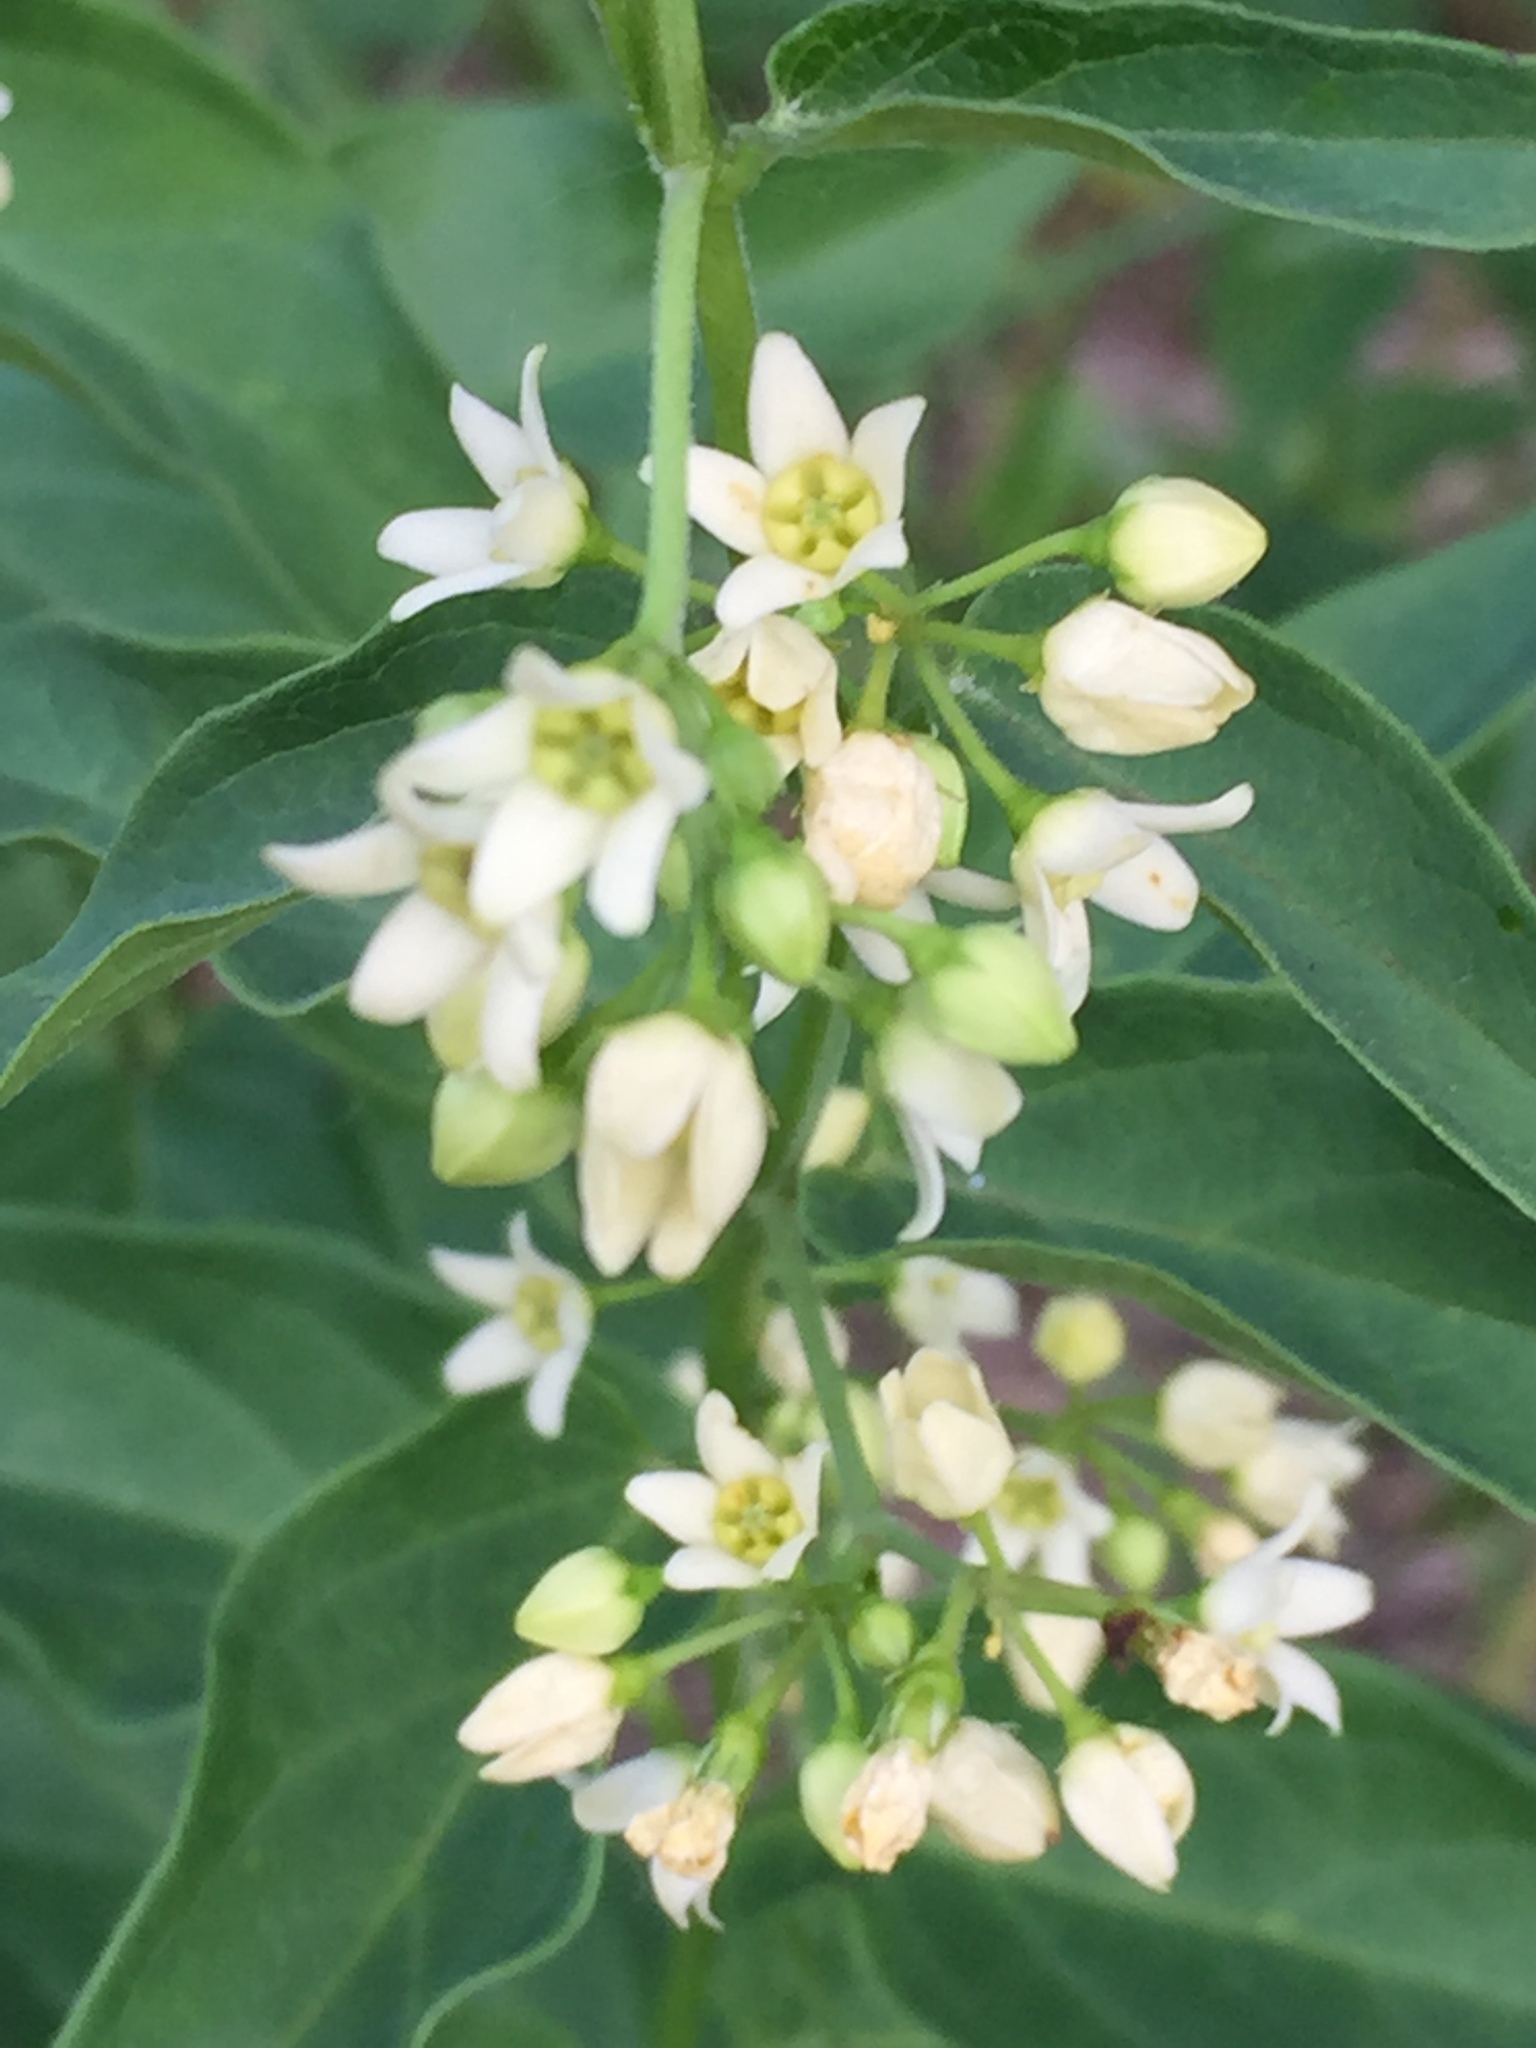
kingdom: Plantae
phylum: Tracheophyta
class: Magnoliopsida
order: Gentianales
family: Apocynaceae
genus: Vincetoxicum
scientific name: Vincetoxicum hirundinaria
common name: White swallowwort
